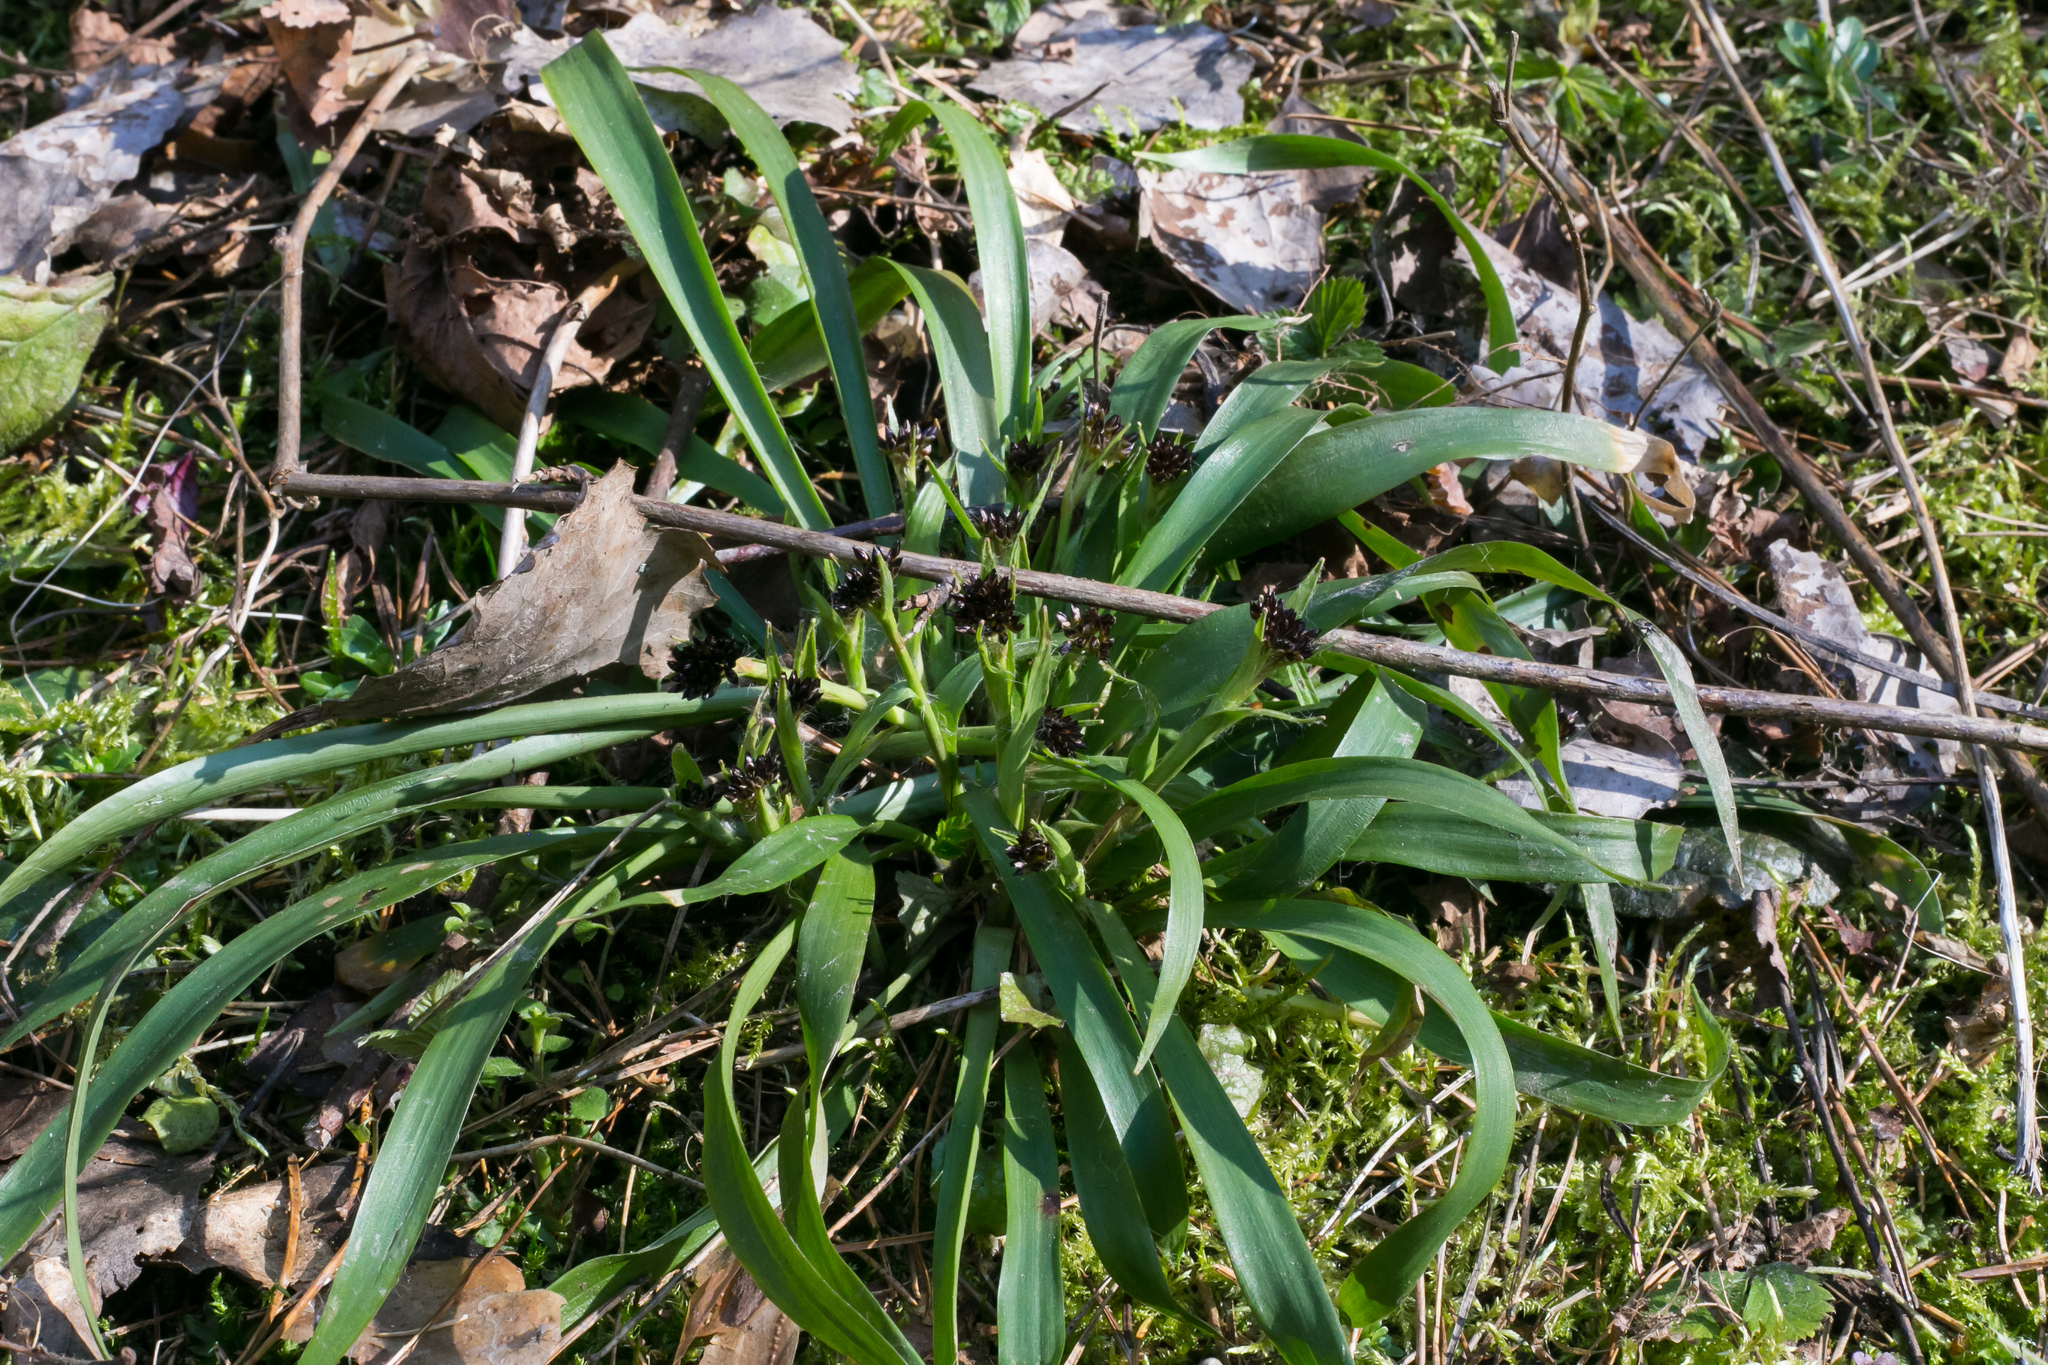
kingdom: Plantae
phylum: Tracheophyta
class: Liliopsida
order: Poales
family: Juncaceae
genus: Luzula
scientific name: Luzula pilosa
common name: Hairy wood-rush
